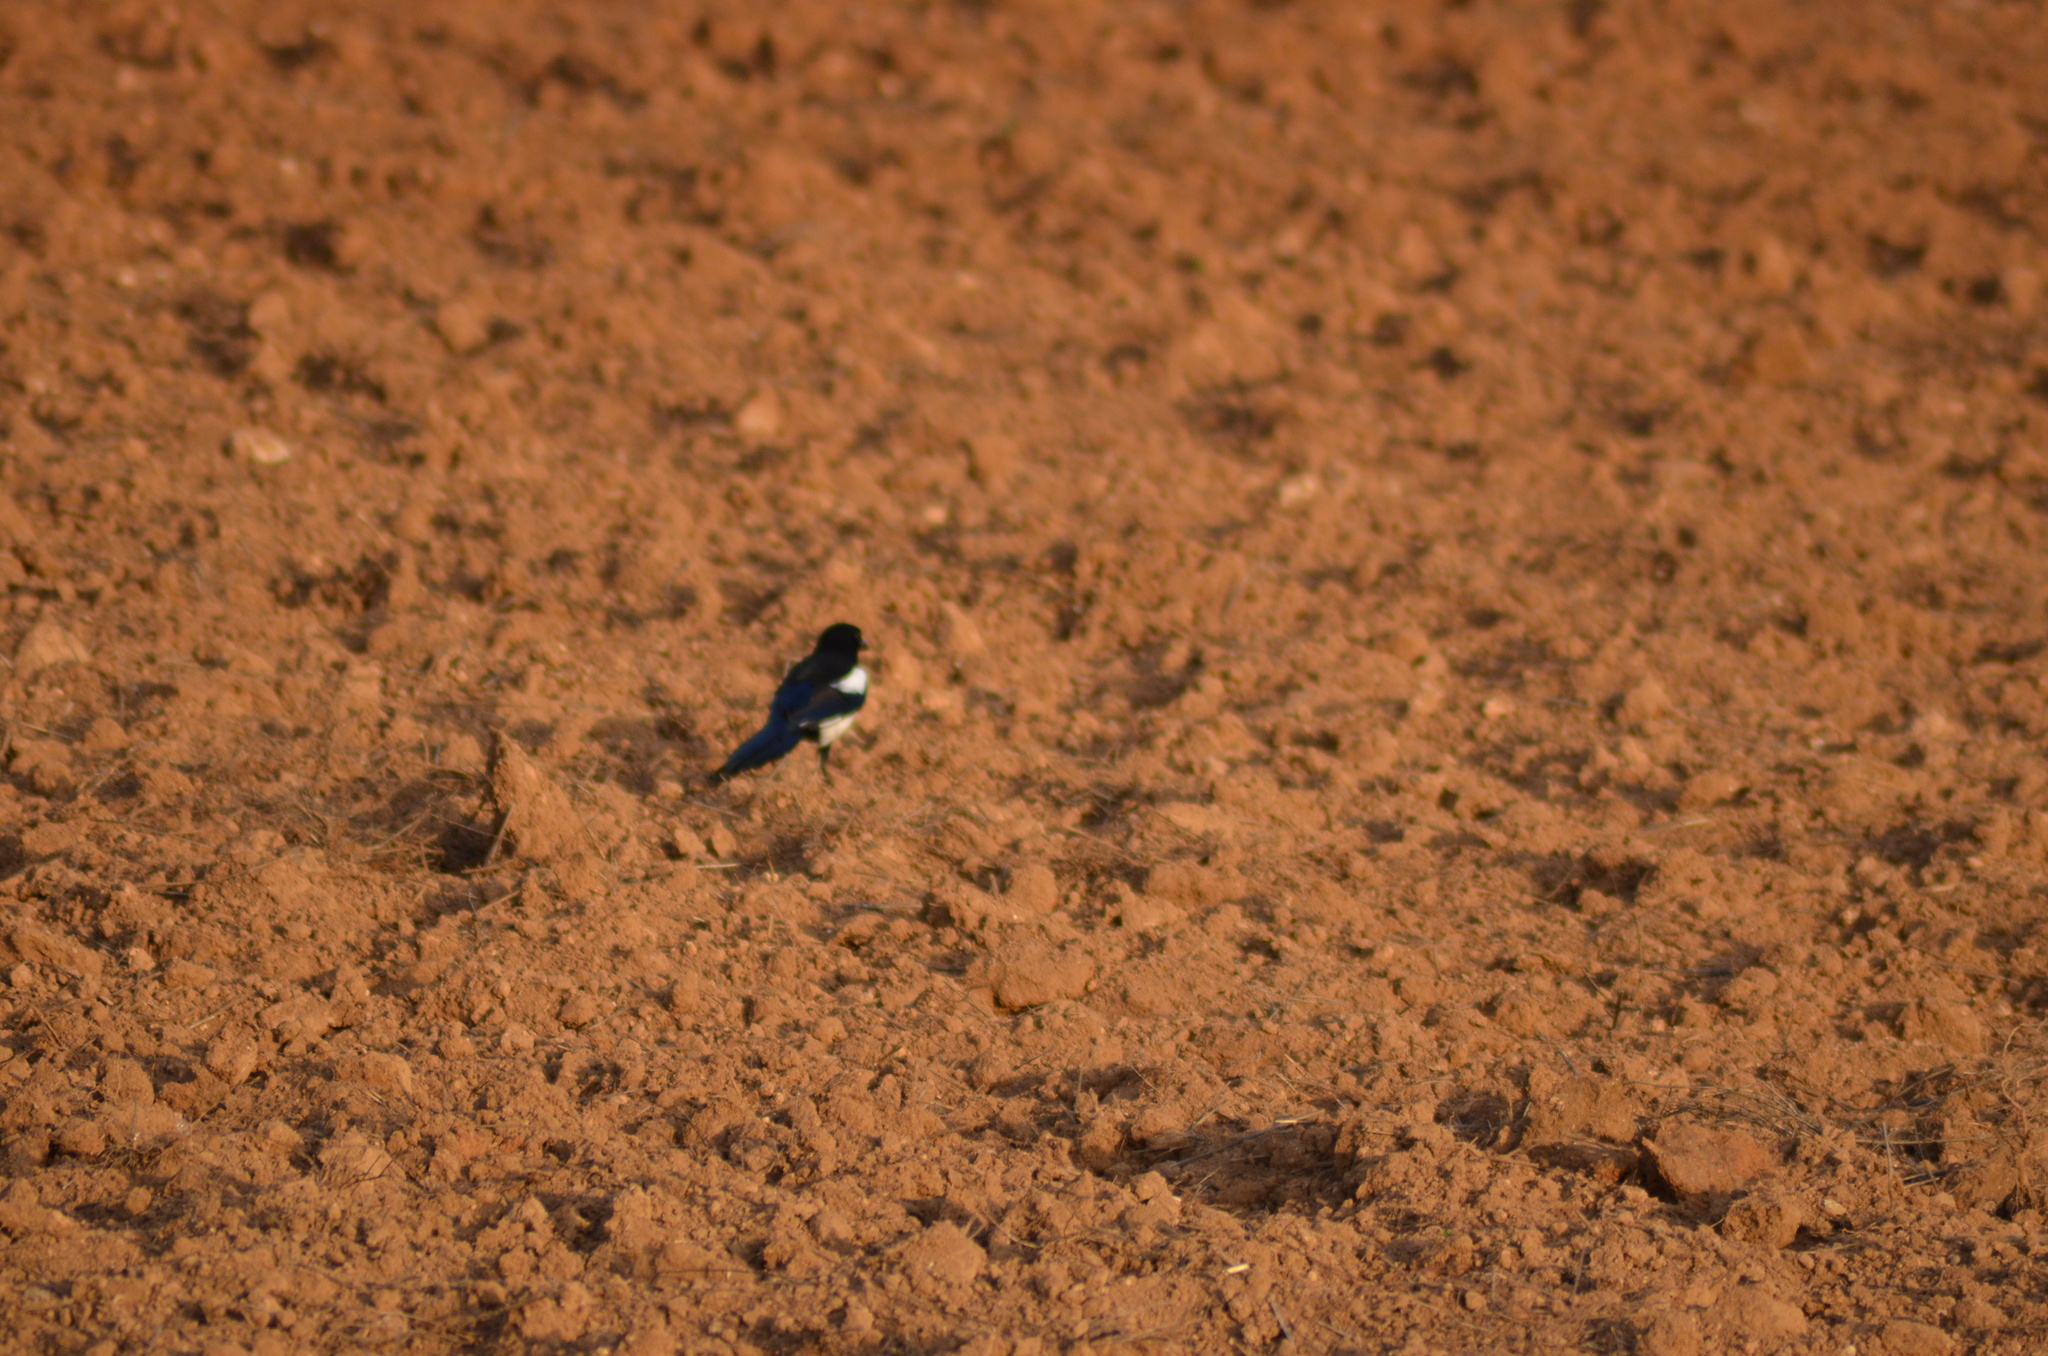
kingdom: Animalia
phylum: Chordata
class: Aves
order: Passeriformes
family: Corvidae
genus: Pica
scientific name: Pica pica
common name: Eurasian magpie
